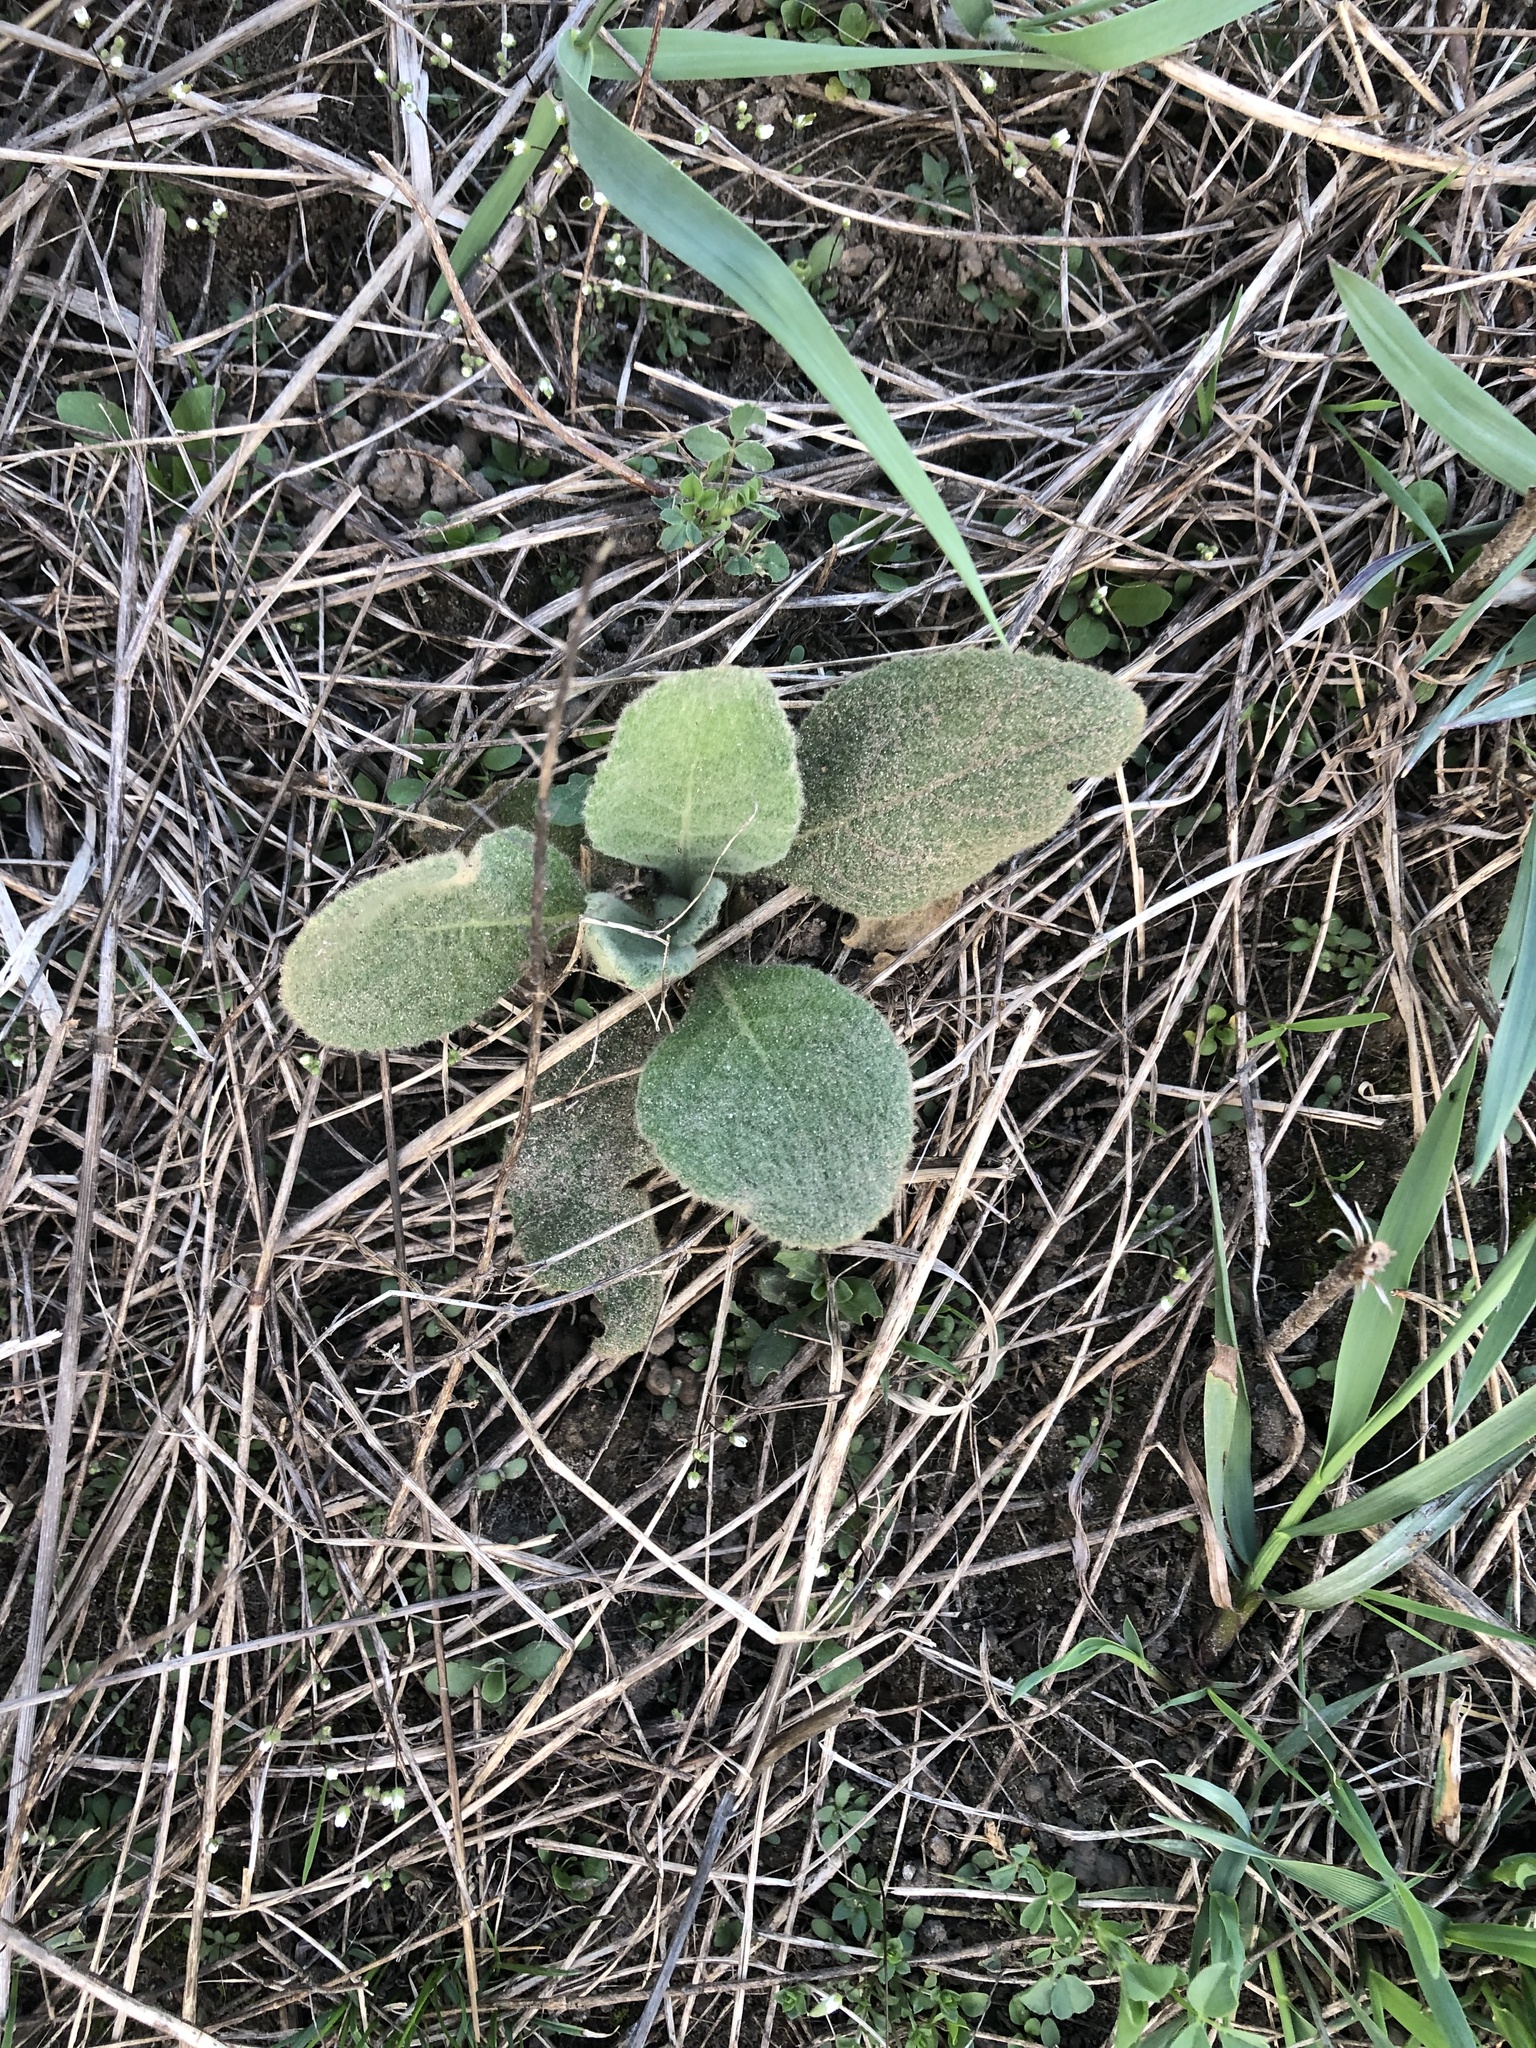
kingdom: Plantae
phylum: Tracheophyta
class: Magnoliopsida
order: Lamiales
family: Scrophulariaceae
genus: Verbascum
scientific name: Verbascum thapsus
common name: Common mullein
